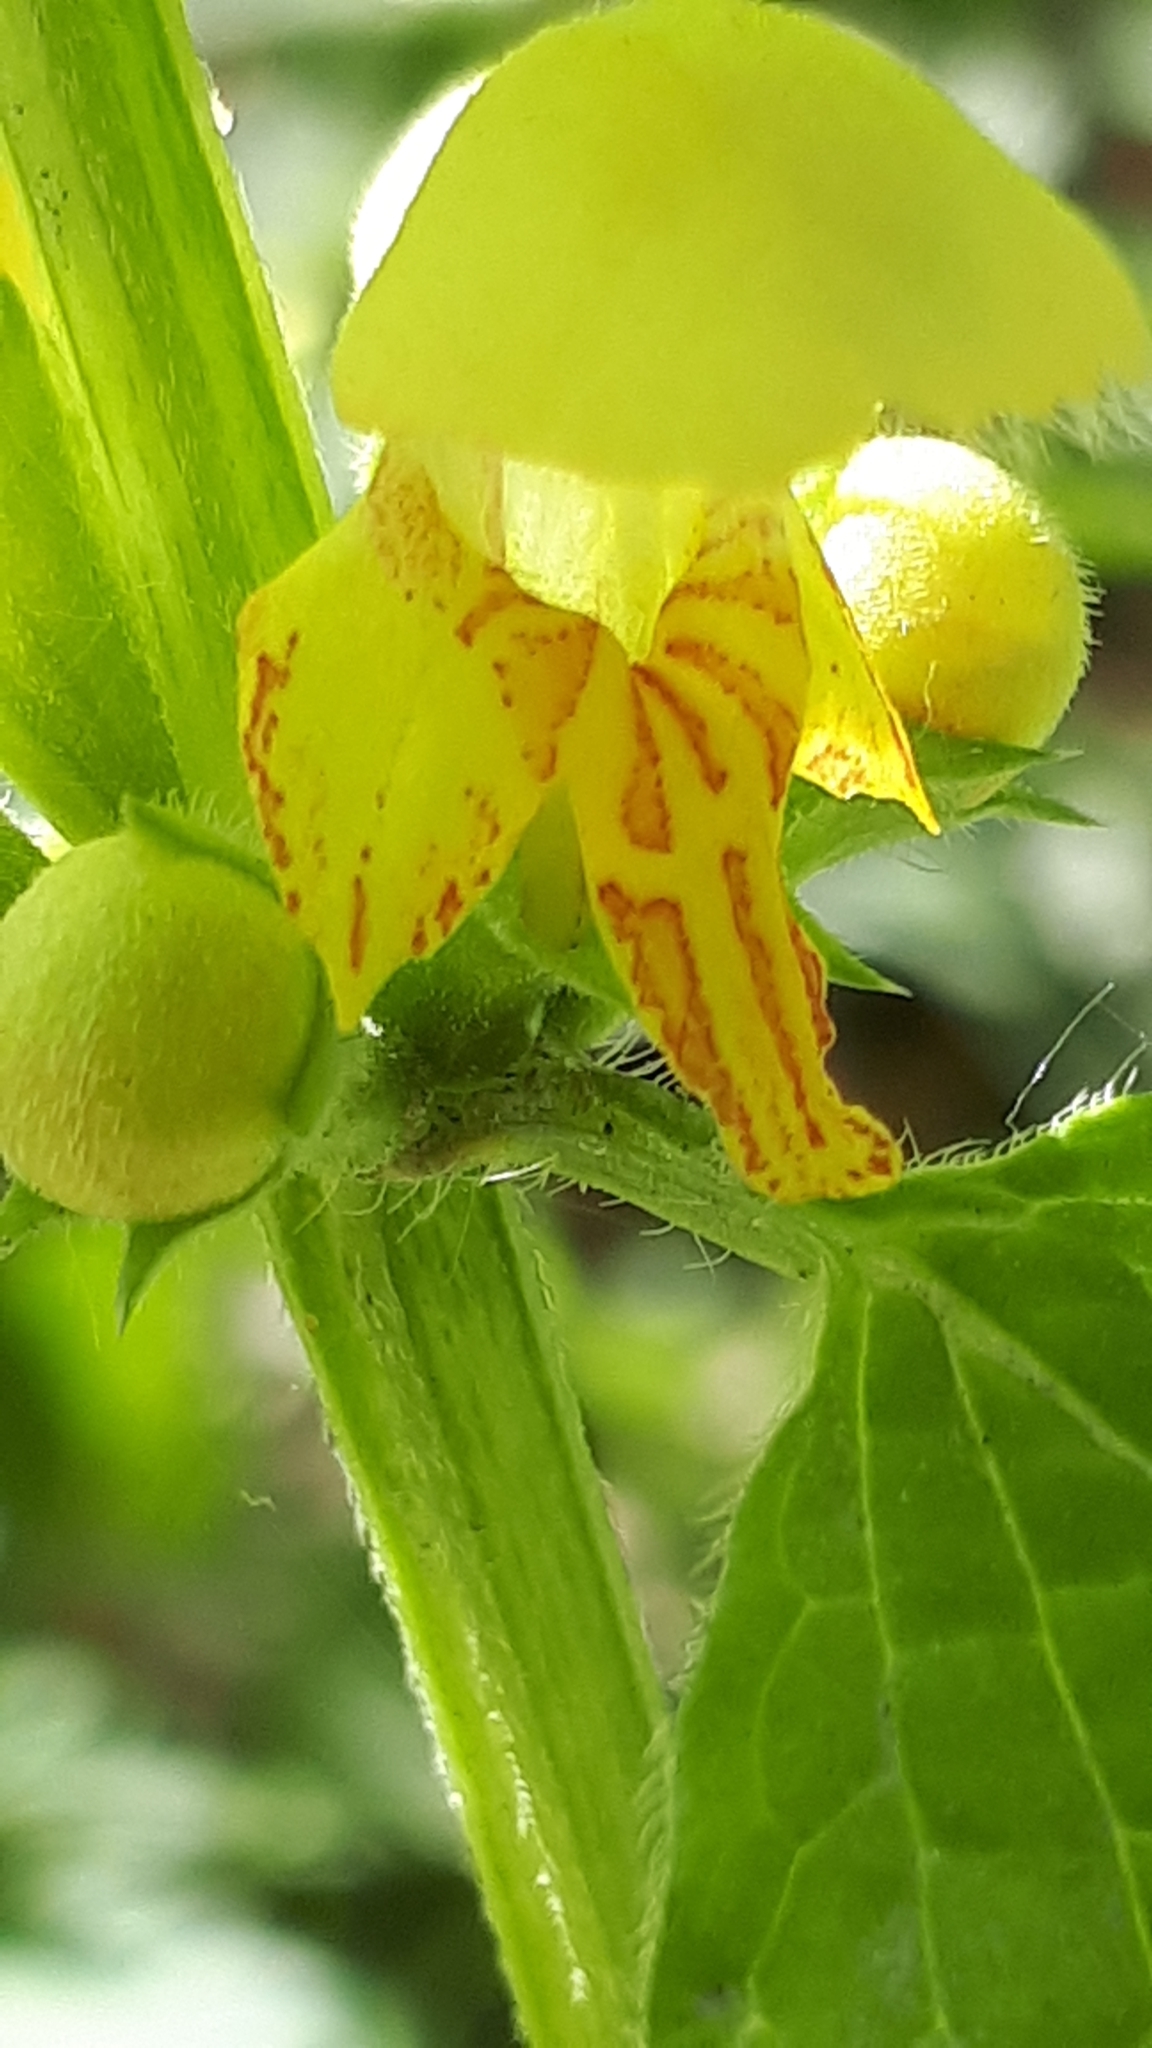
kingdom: Plantae
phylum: Tracheophyta
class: Magnoliopsida
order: Lamiales
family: Lamiaceae
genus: Lamium
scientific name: Lamium galeobdolon
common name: Yellow archangel
